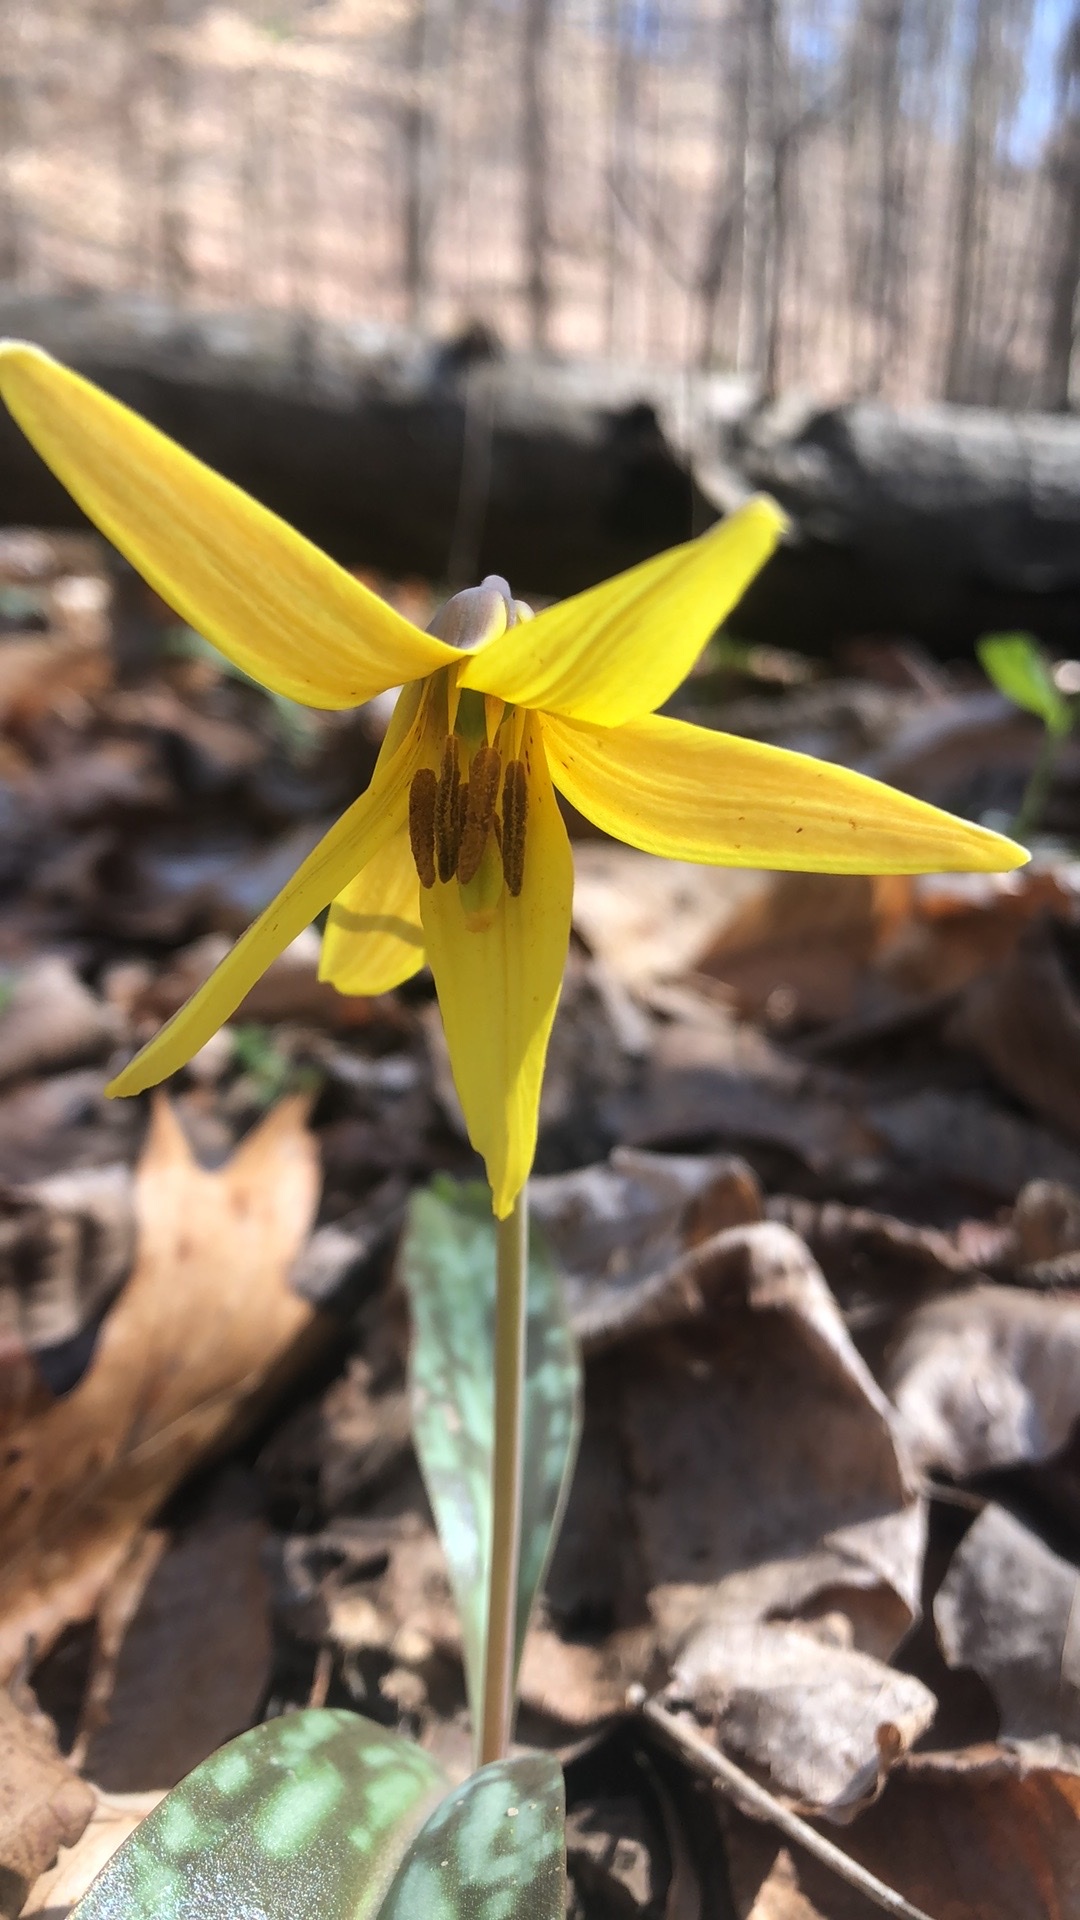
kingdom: Plantae
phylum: Tracheophyta
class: Liliopsida
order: Liliales
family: Liliaceae
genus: Erythronium
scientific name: Erythronium americanum
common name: Yellow adder's-tongue
